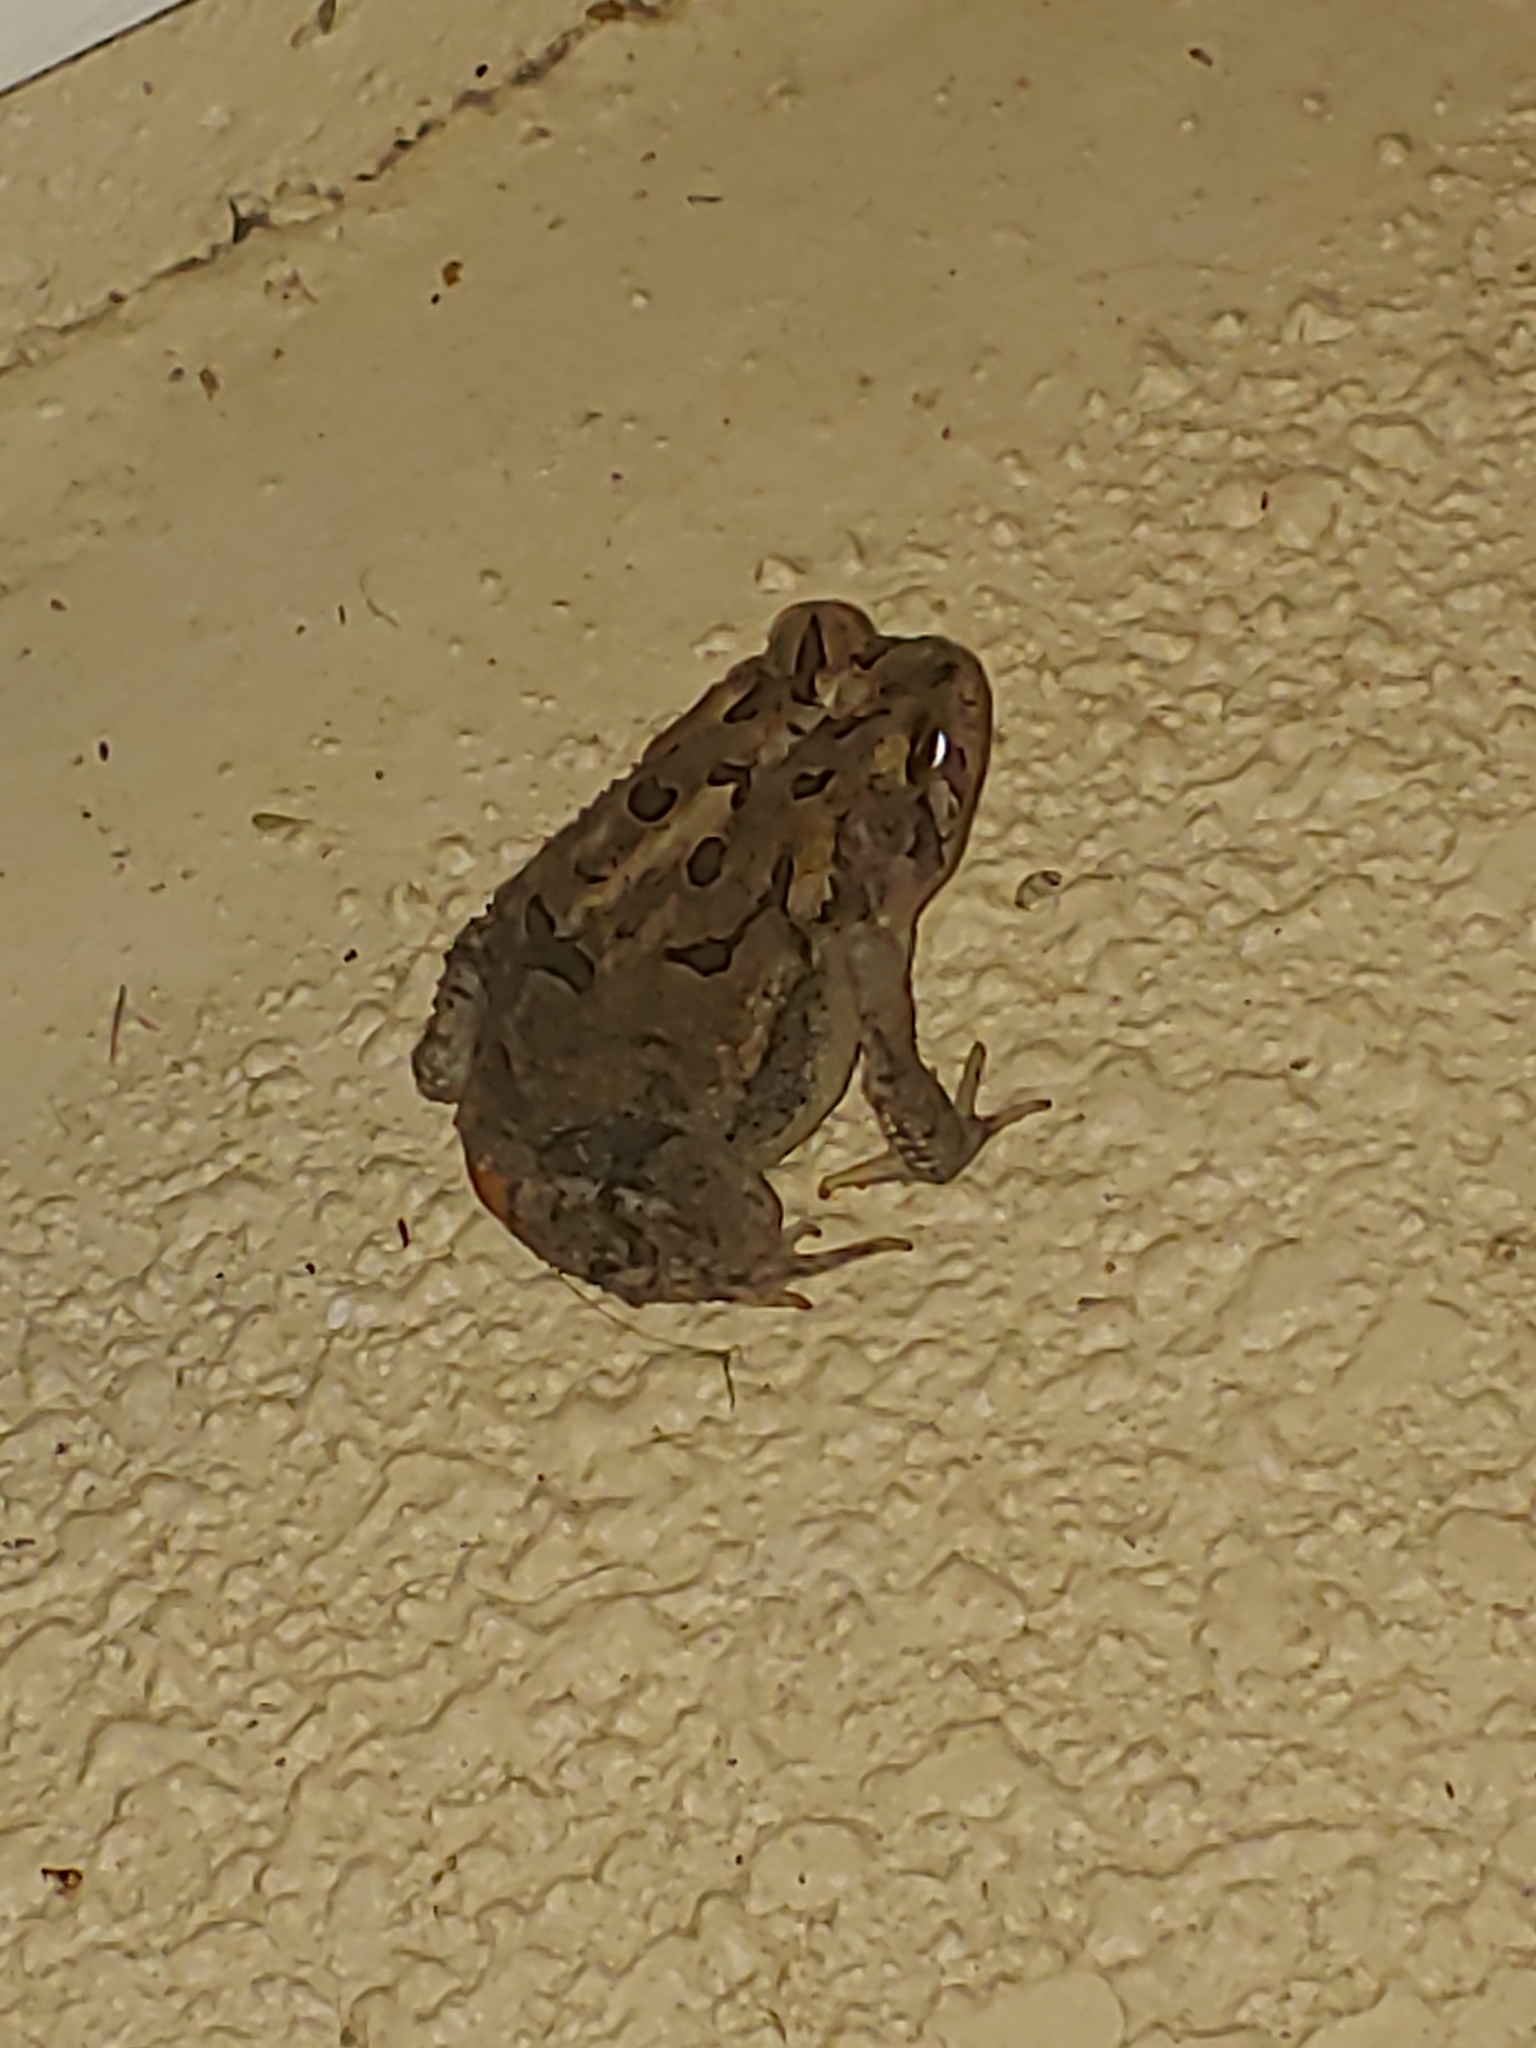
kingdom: Animalia
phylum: Chordata
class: Amphibia
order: Anura
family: Bufonidae
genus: Anaxyrus
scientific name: Anaxyrus terrestris
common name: Southern toad
